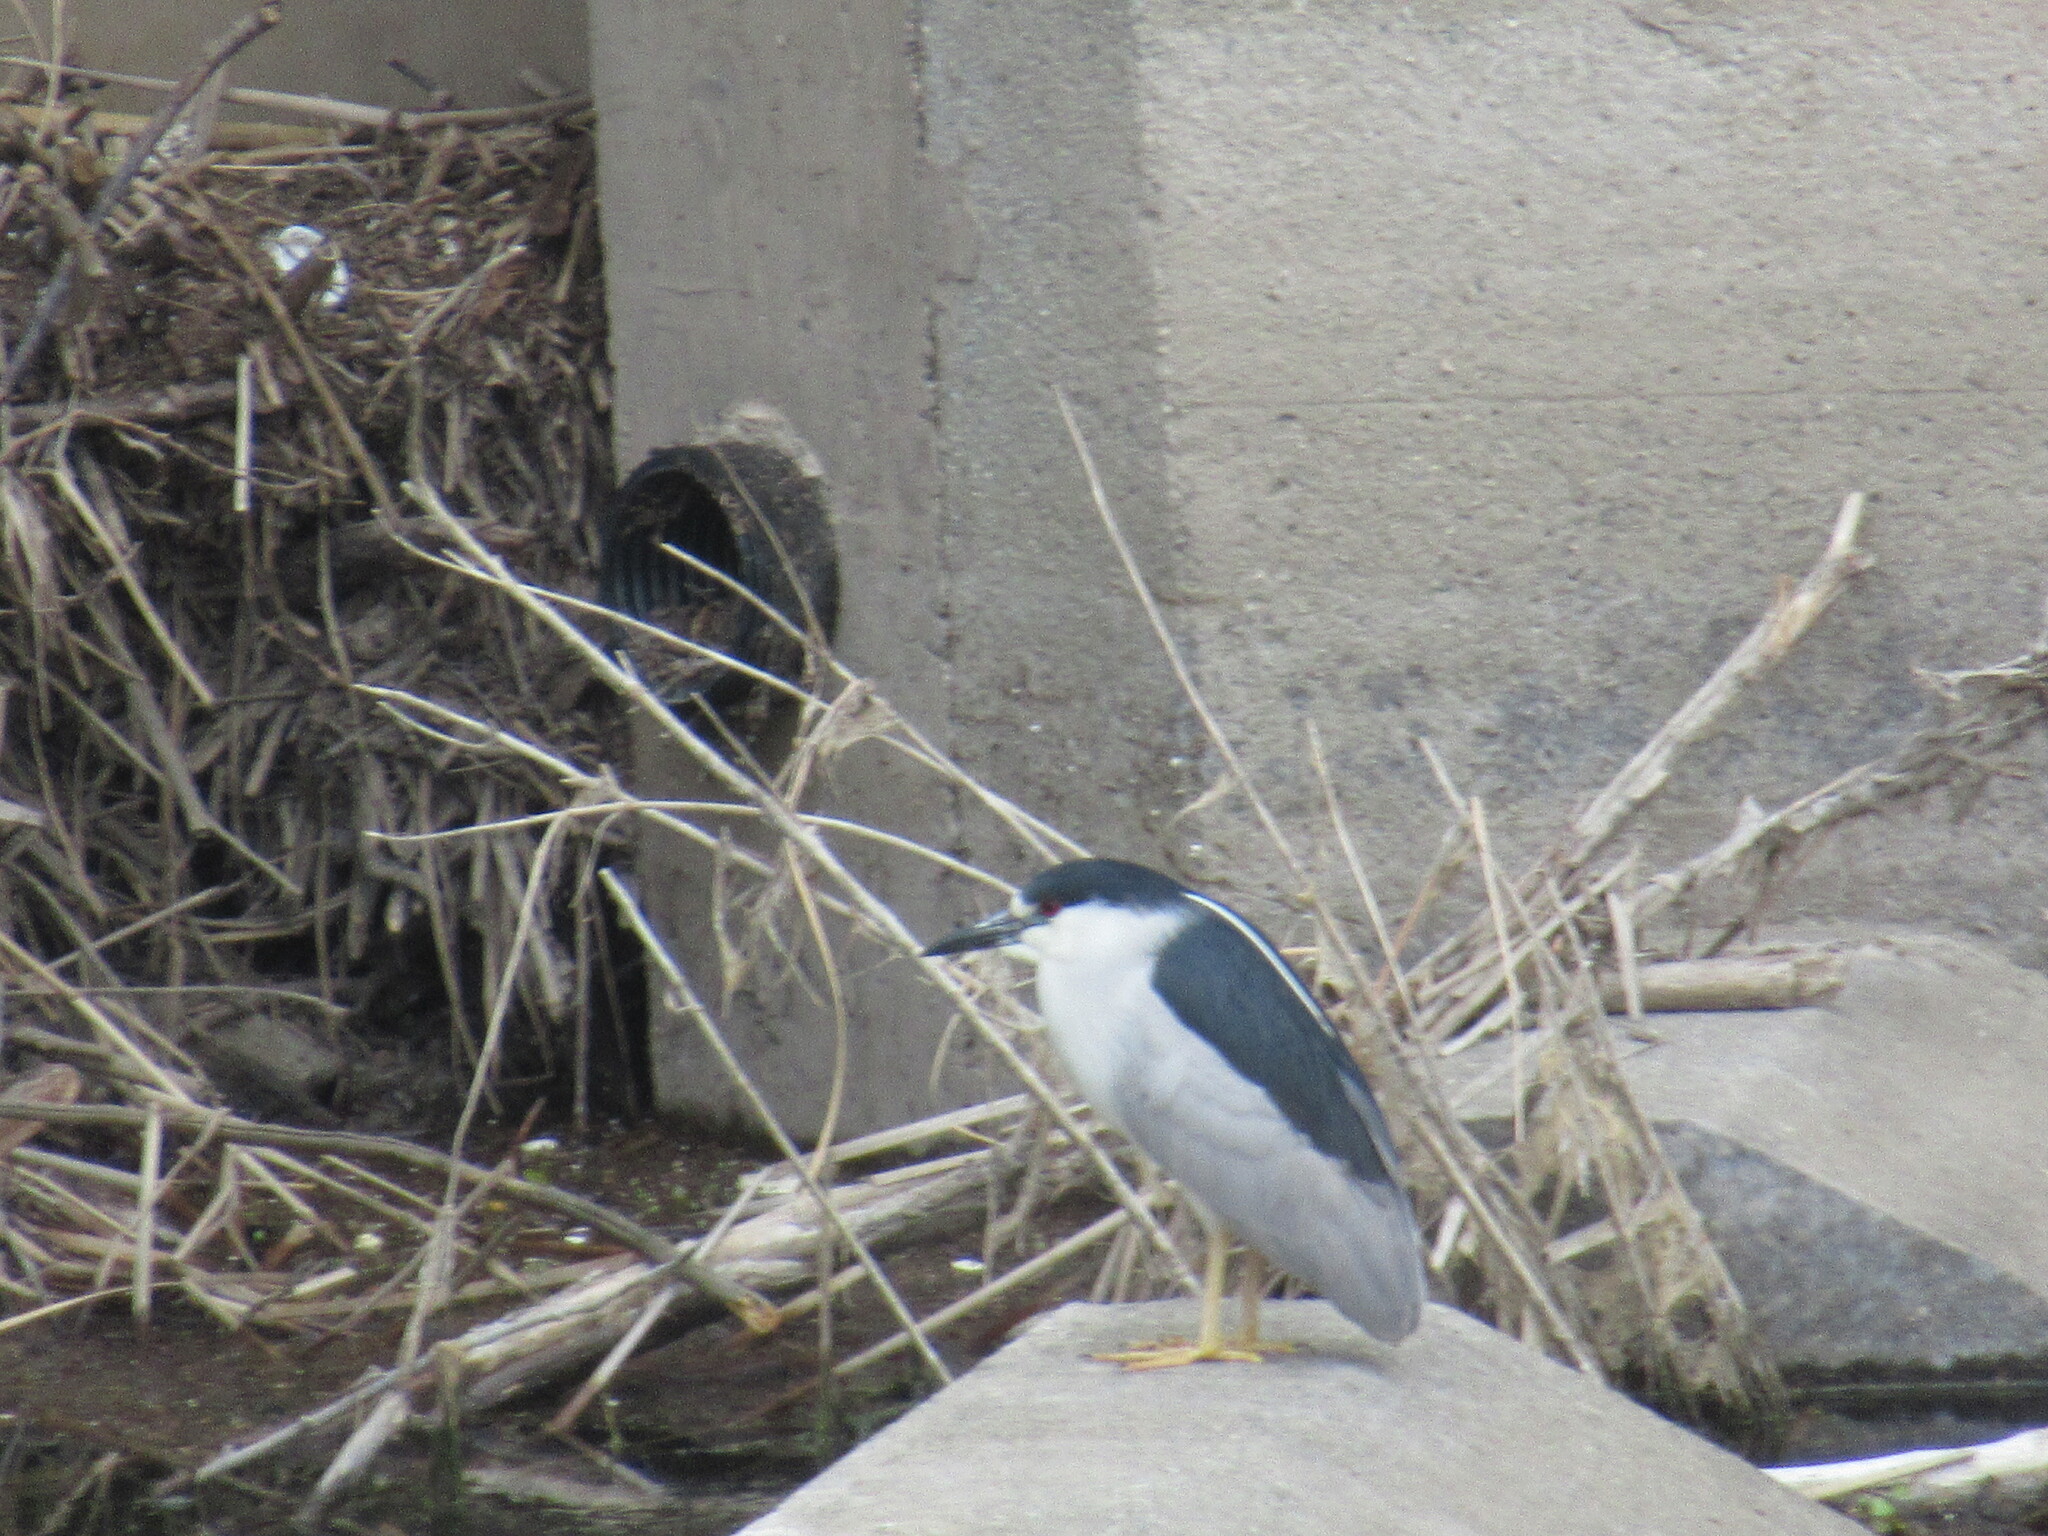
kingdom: Animalia
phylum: Chordata
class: Aves
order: Pelecaniformes
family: Ardeidae
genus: Nycticorax
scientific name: Nycticorax nycticorax
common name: Black-crowned night heron
